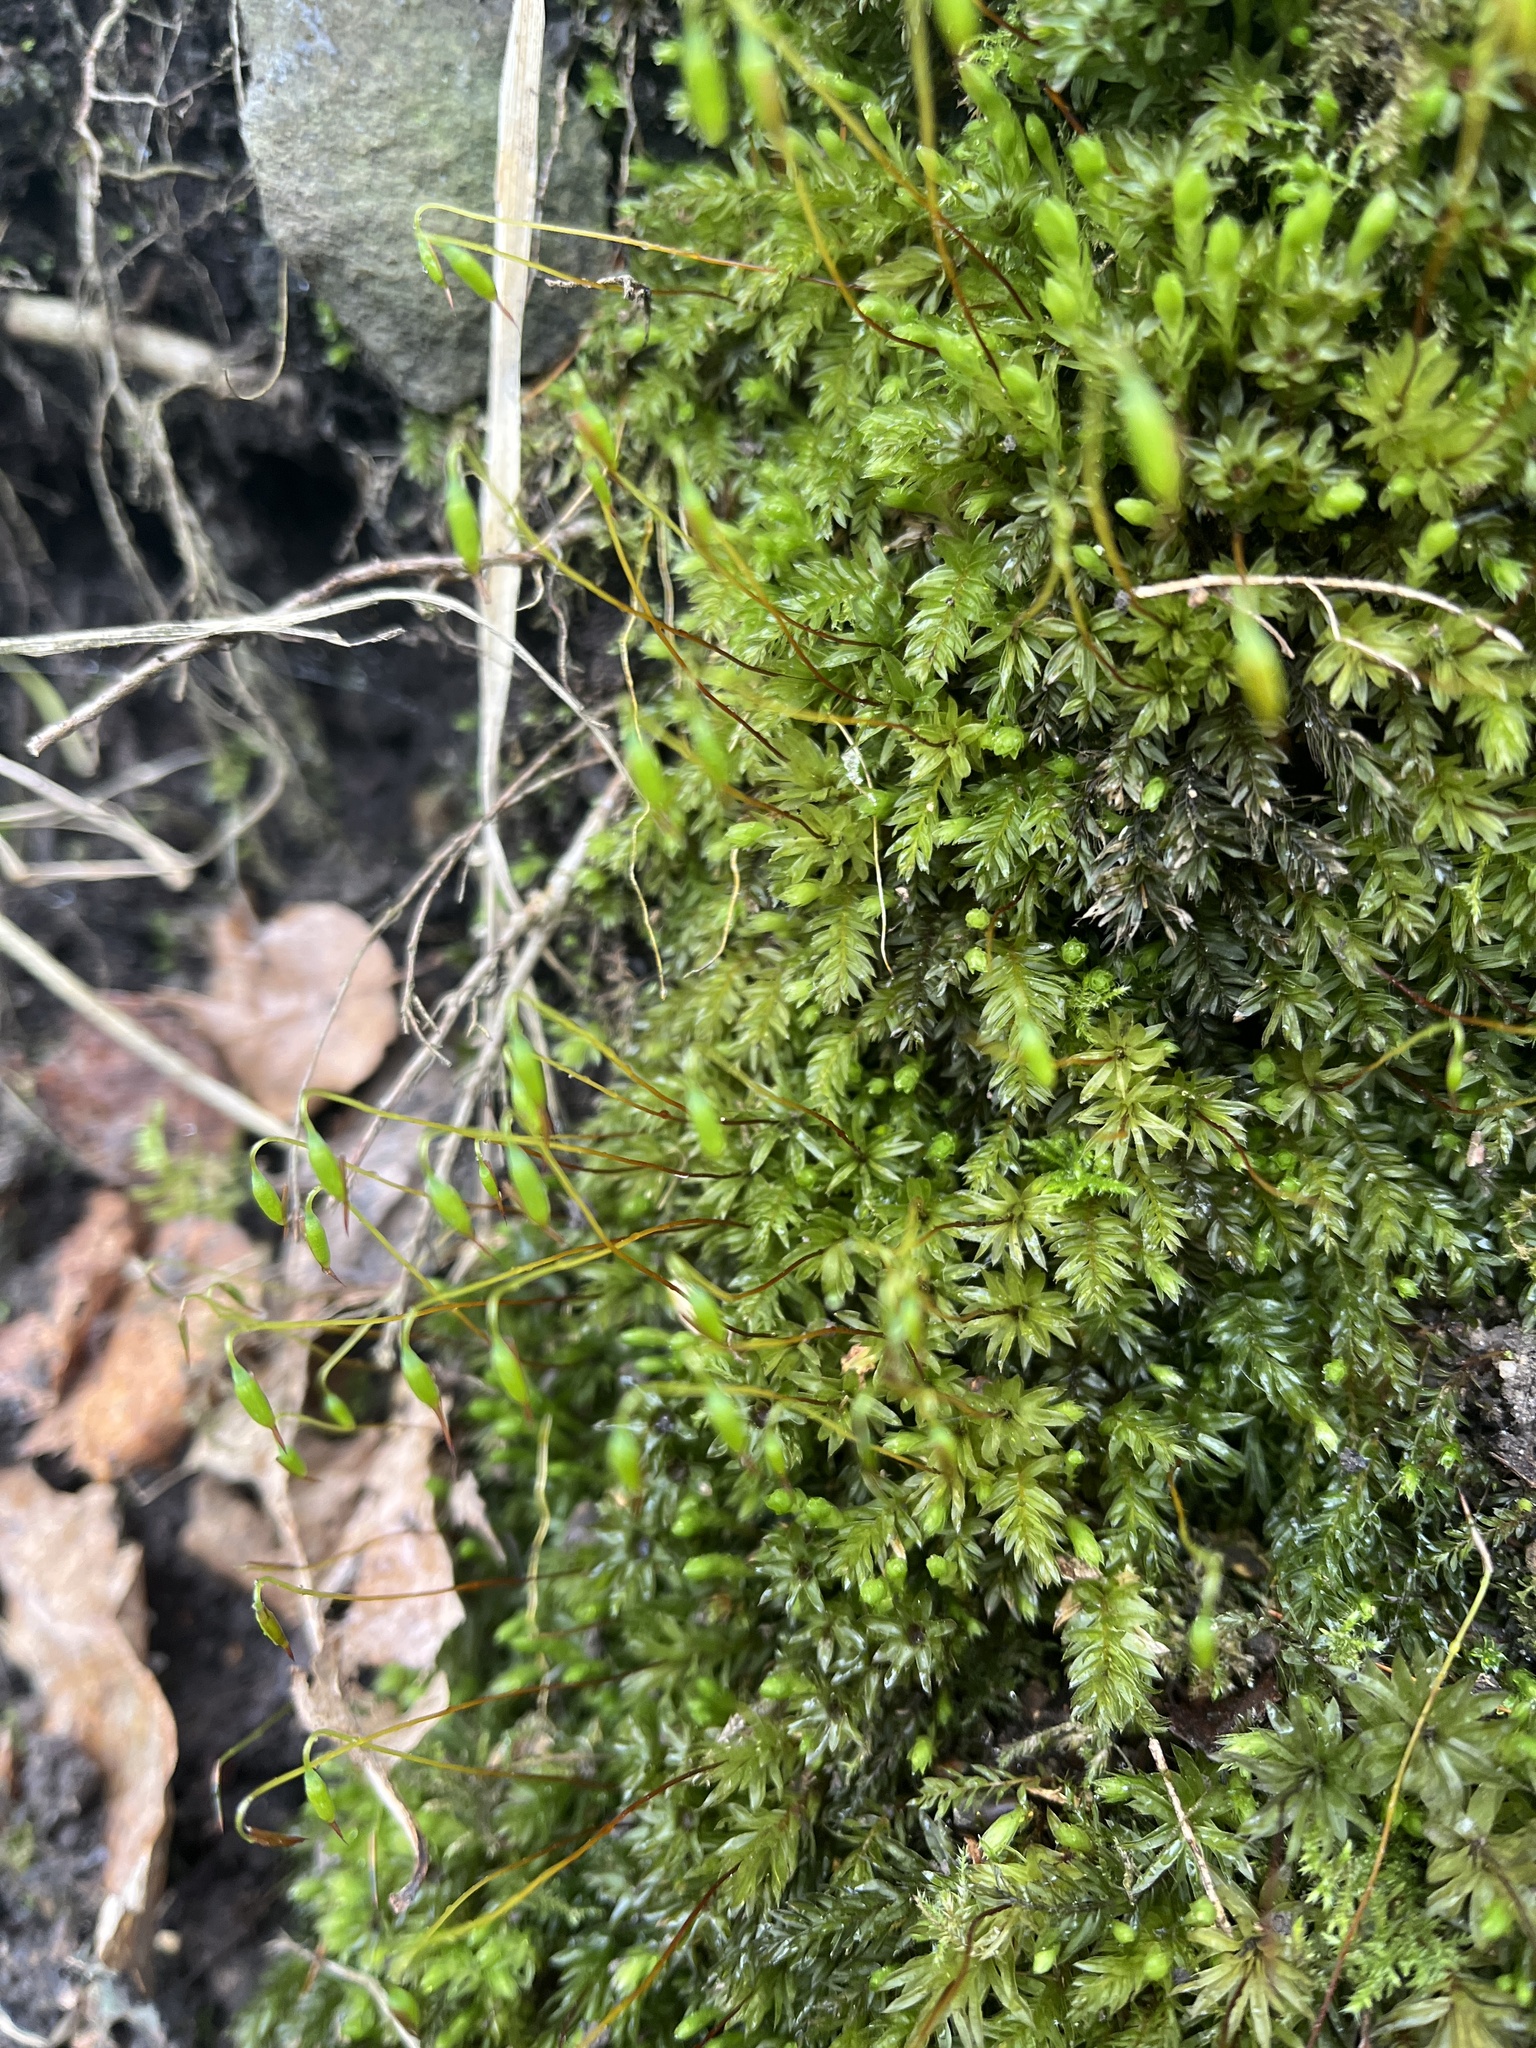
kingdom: Plantae
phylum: Bryophyta
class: Bryopsida
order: Bryales
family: Mniaceae
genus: Mnium
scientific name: Mnium hornum
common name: Swan's-neck leafy moss
